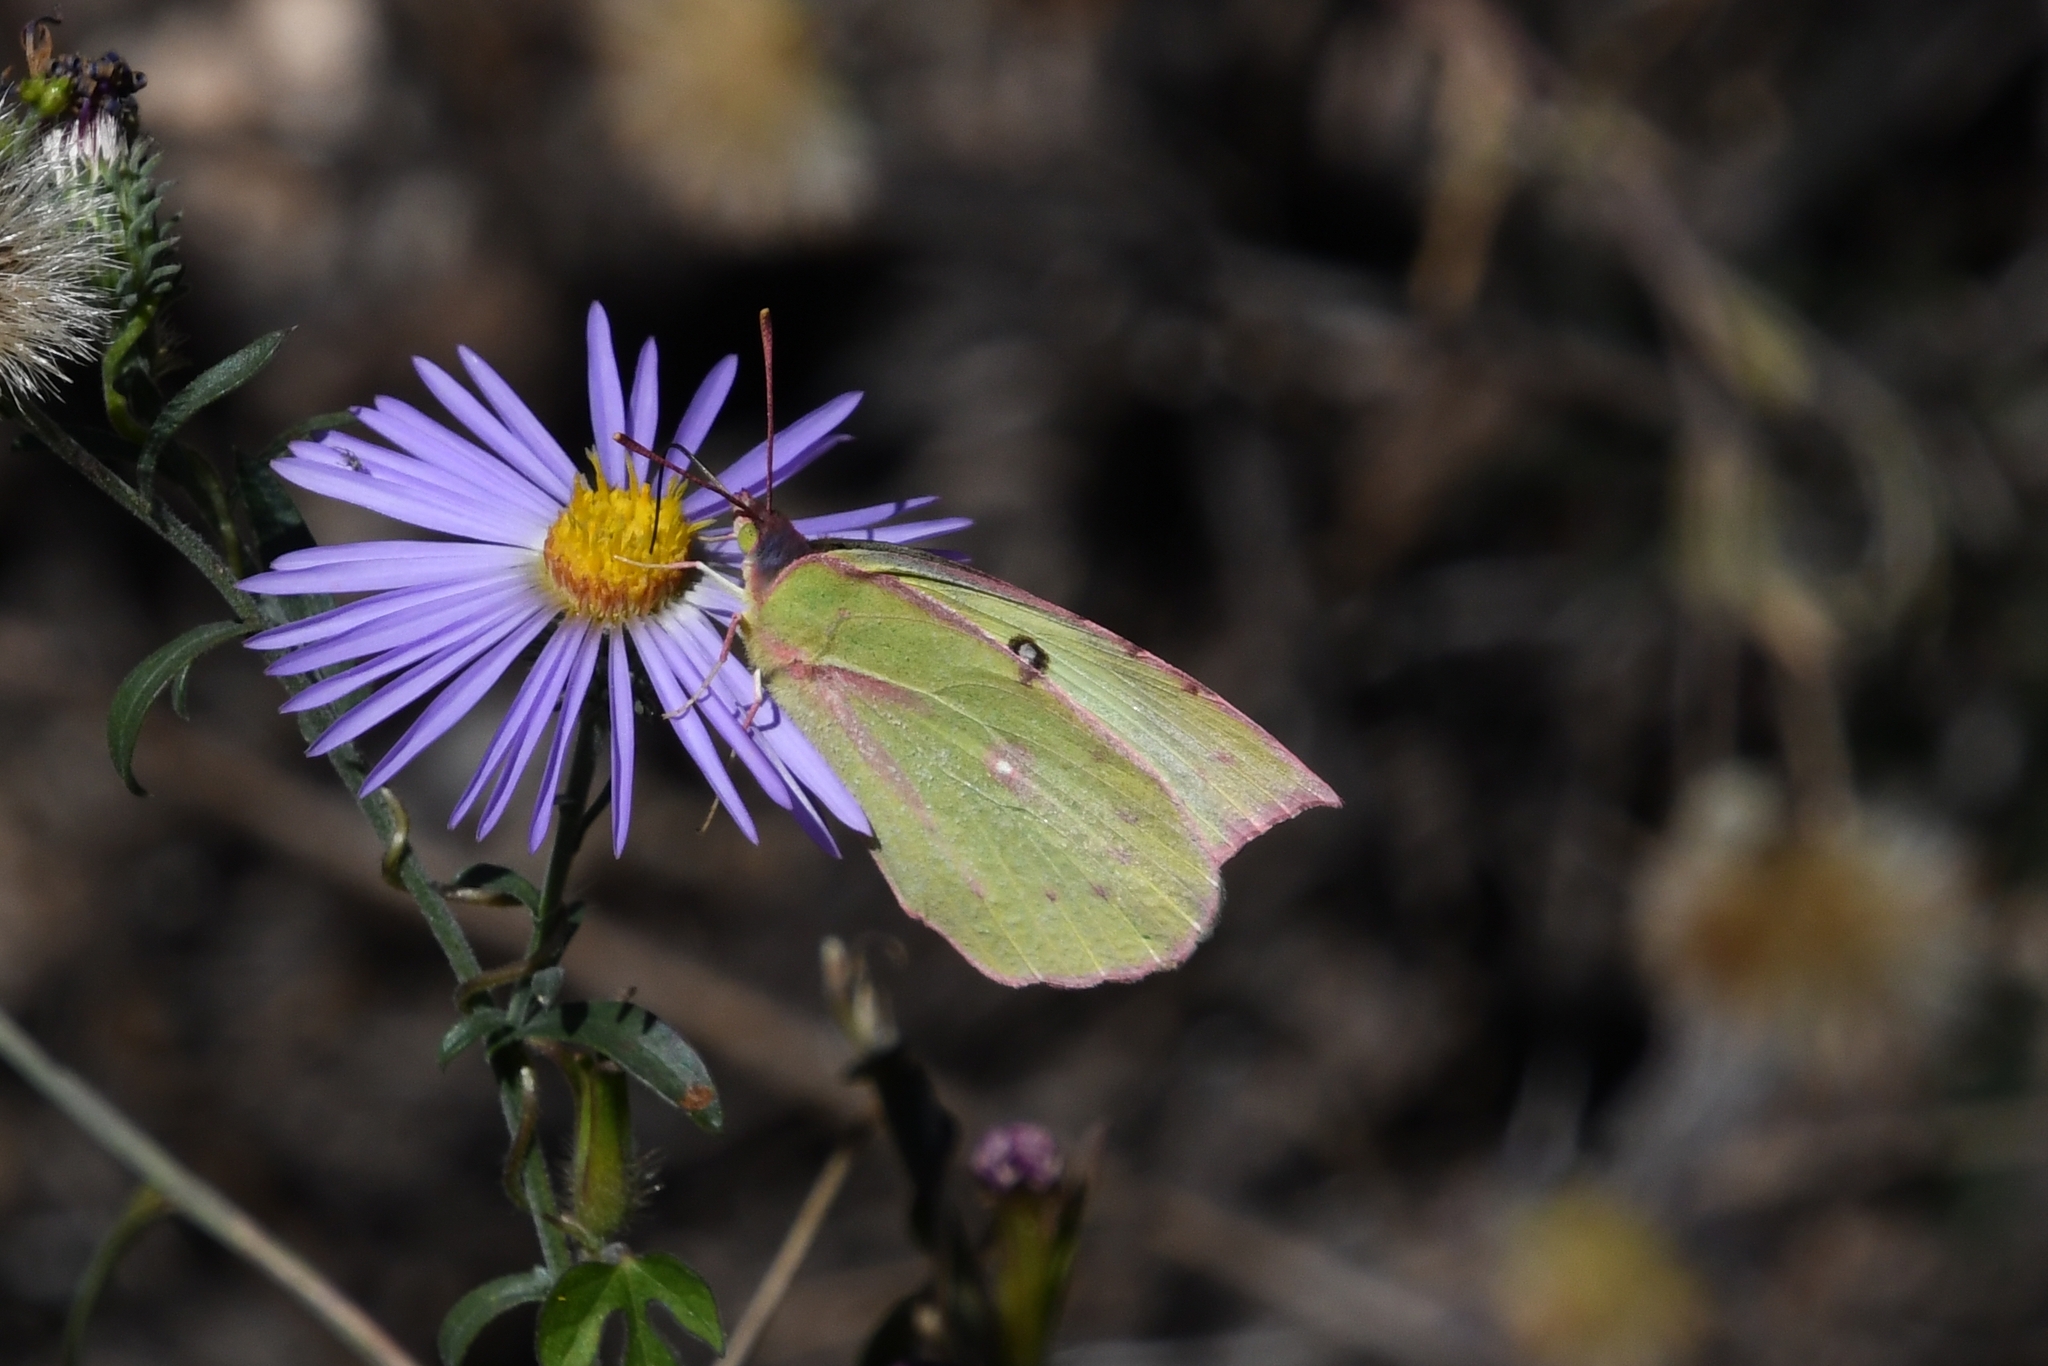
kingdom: Animalia
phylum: Arthropoda
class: Insecta
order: Lepidoptera
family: Pieridae
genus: Zerene
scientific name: Zerene cesonia
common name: Southern dogface
